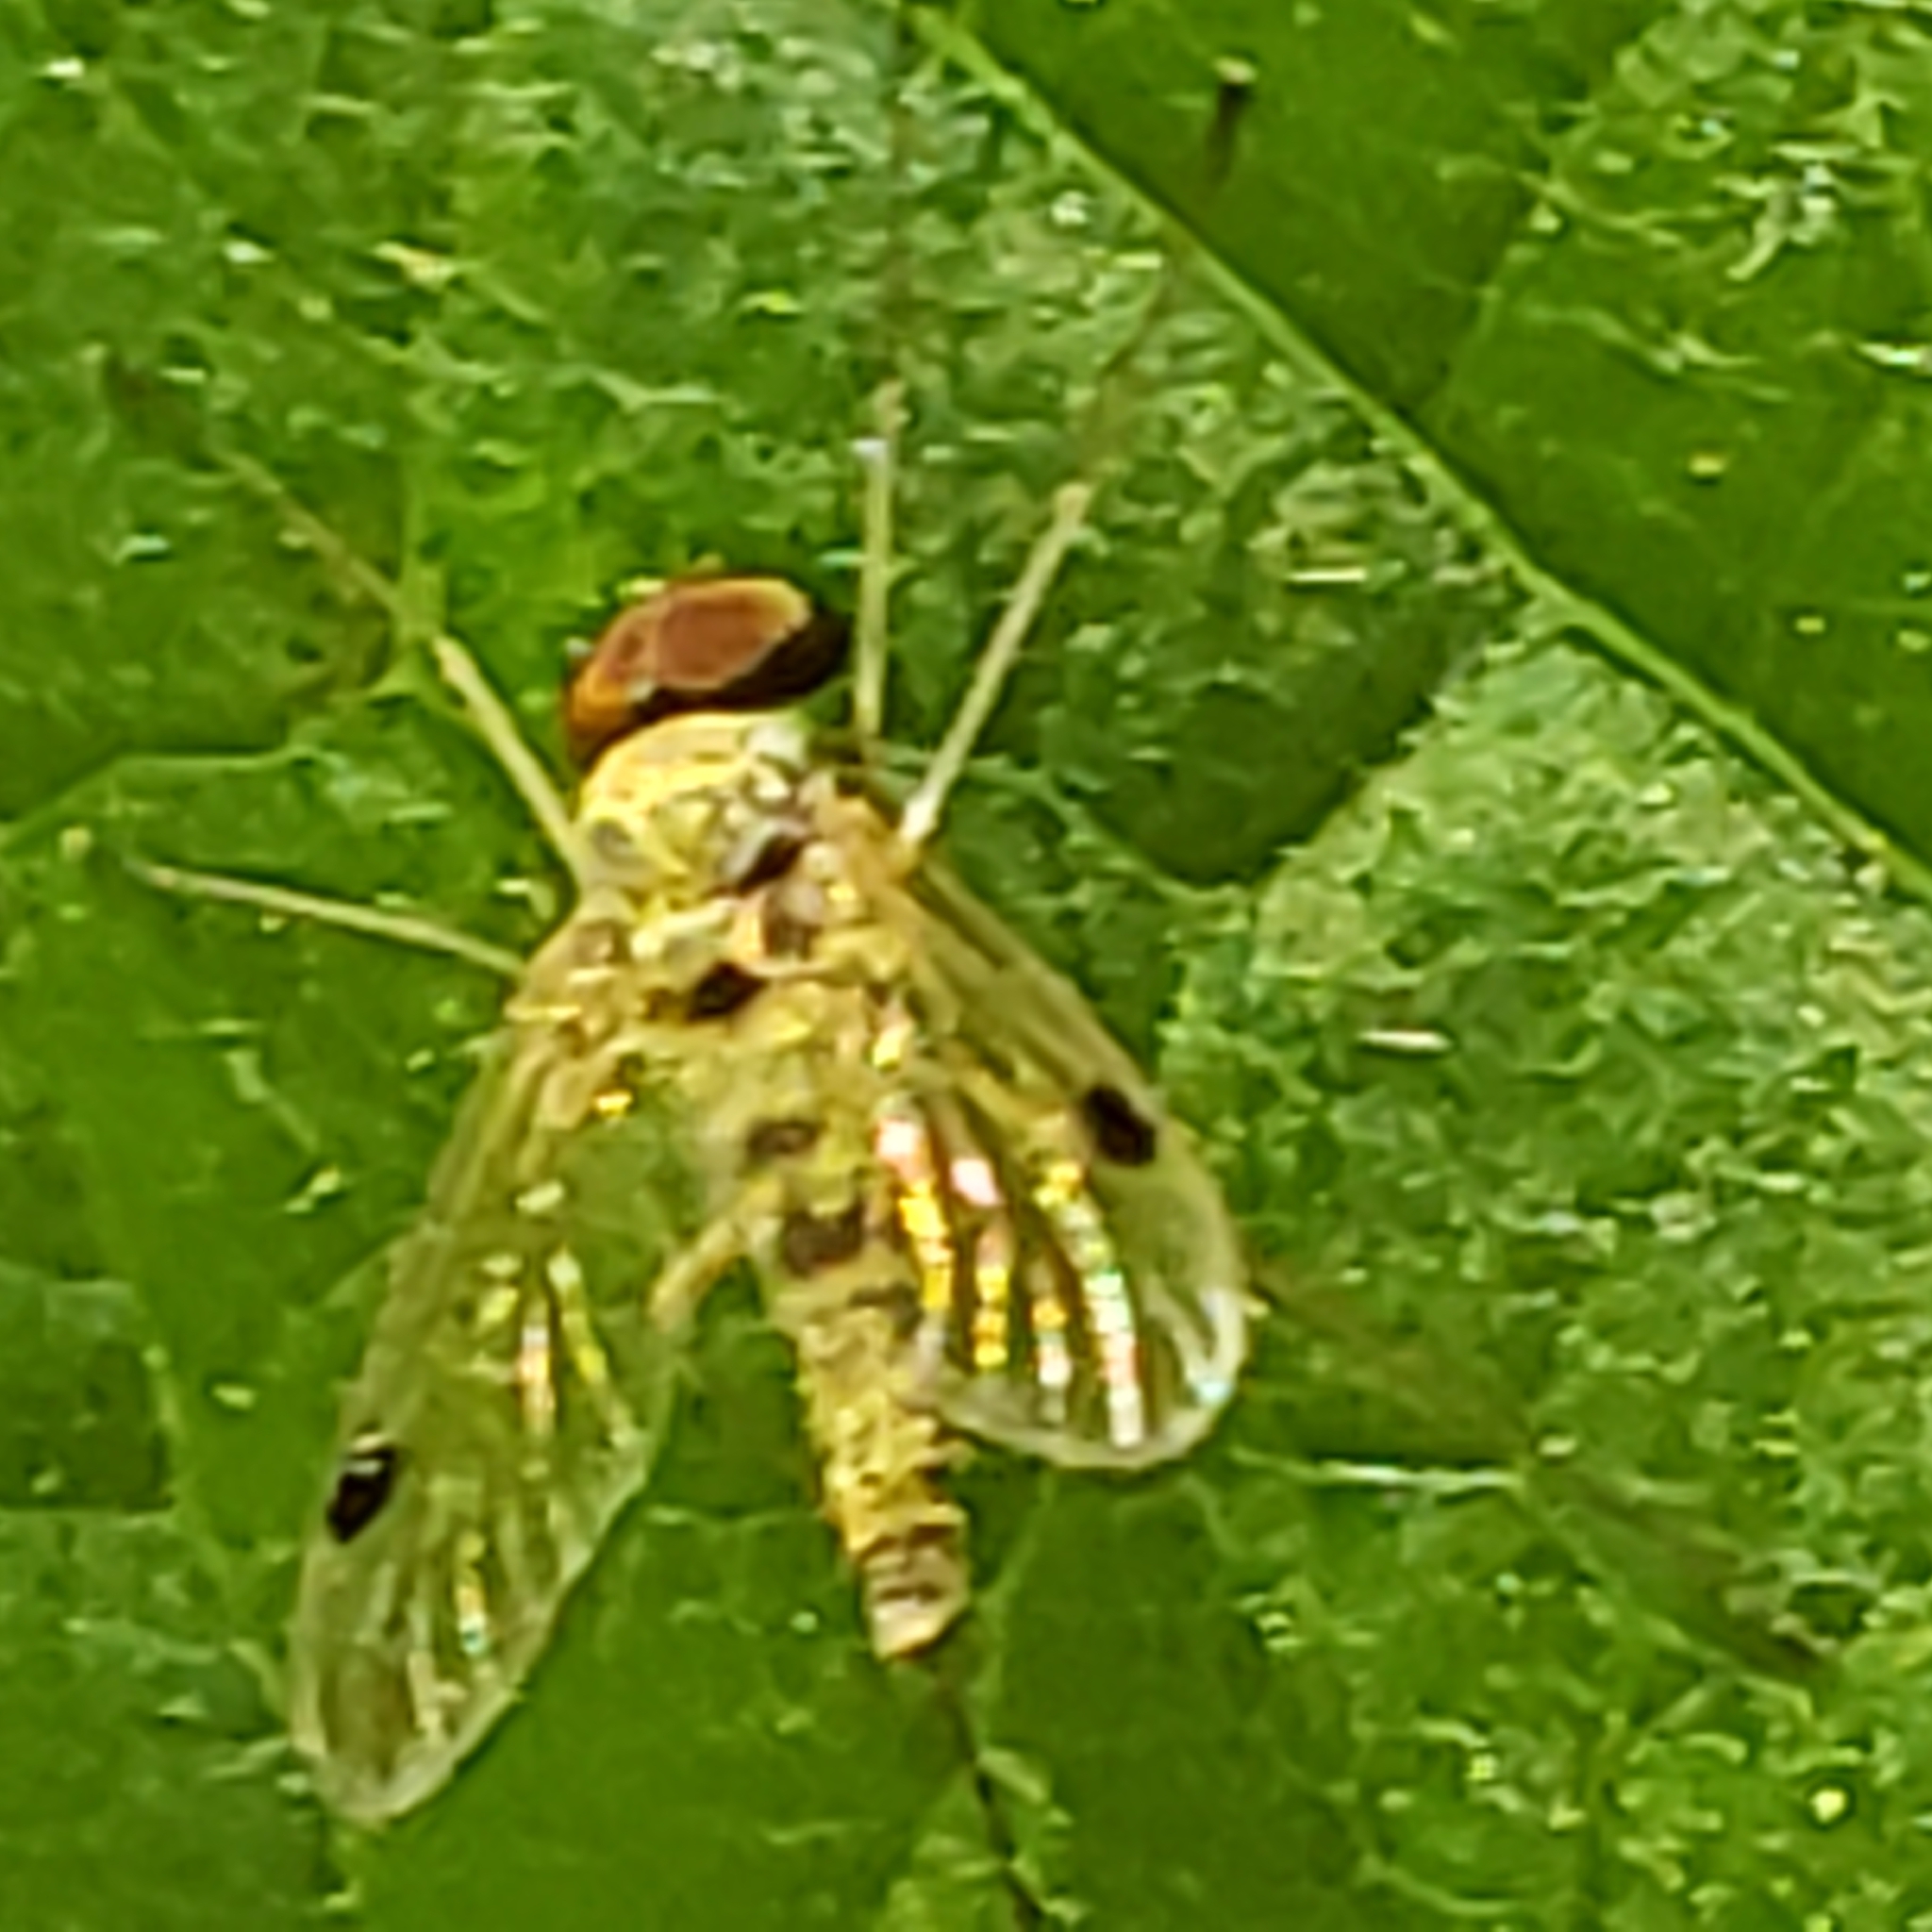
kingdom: Animalia
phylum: Arthropoda
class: Insecta
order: Diptera
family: Rhagionidae
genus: Chrysopilus
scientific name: Chrysopilus modestus
